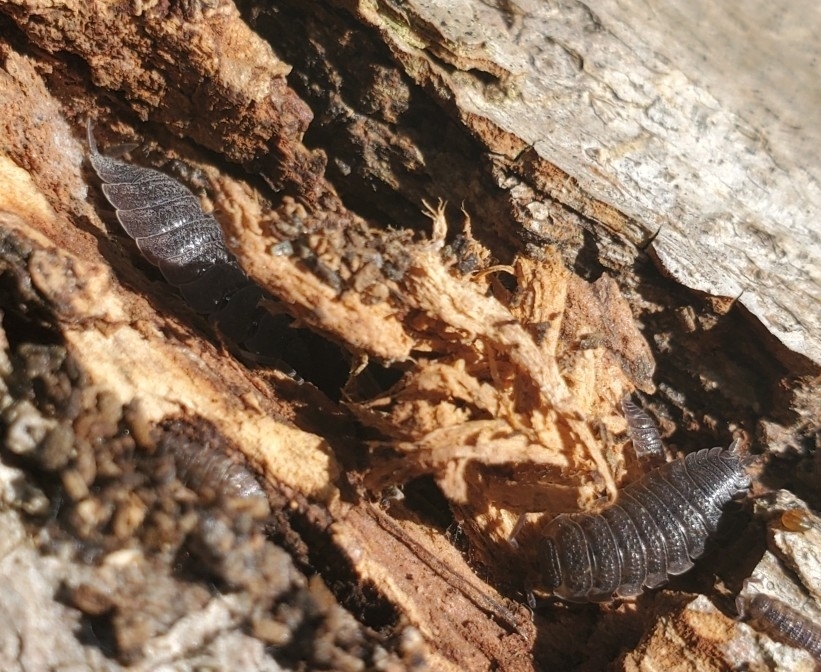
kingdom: Animalia
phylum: Arthropoda
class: Malacostraca
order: Isopoda
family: Porcellionidae
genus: Porcellio
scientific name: Porcellio scaber
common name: Common rough woodlouse
